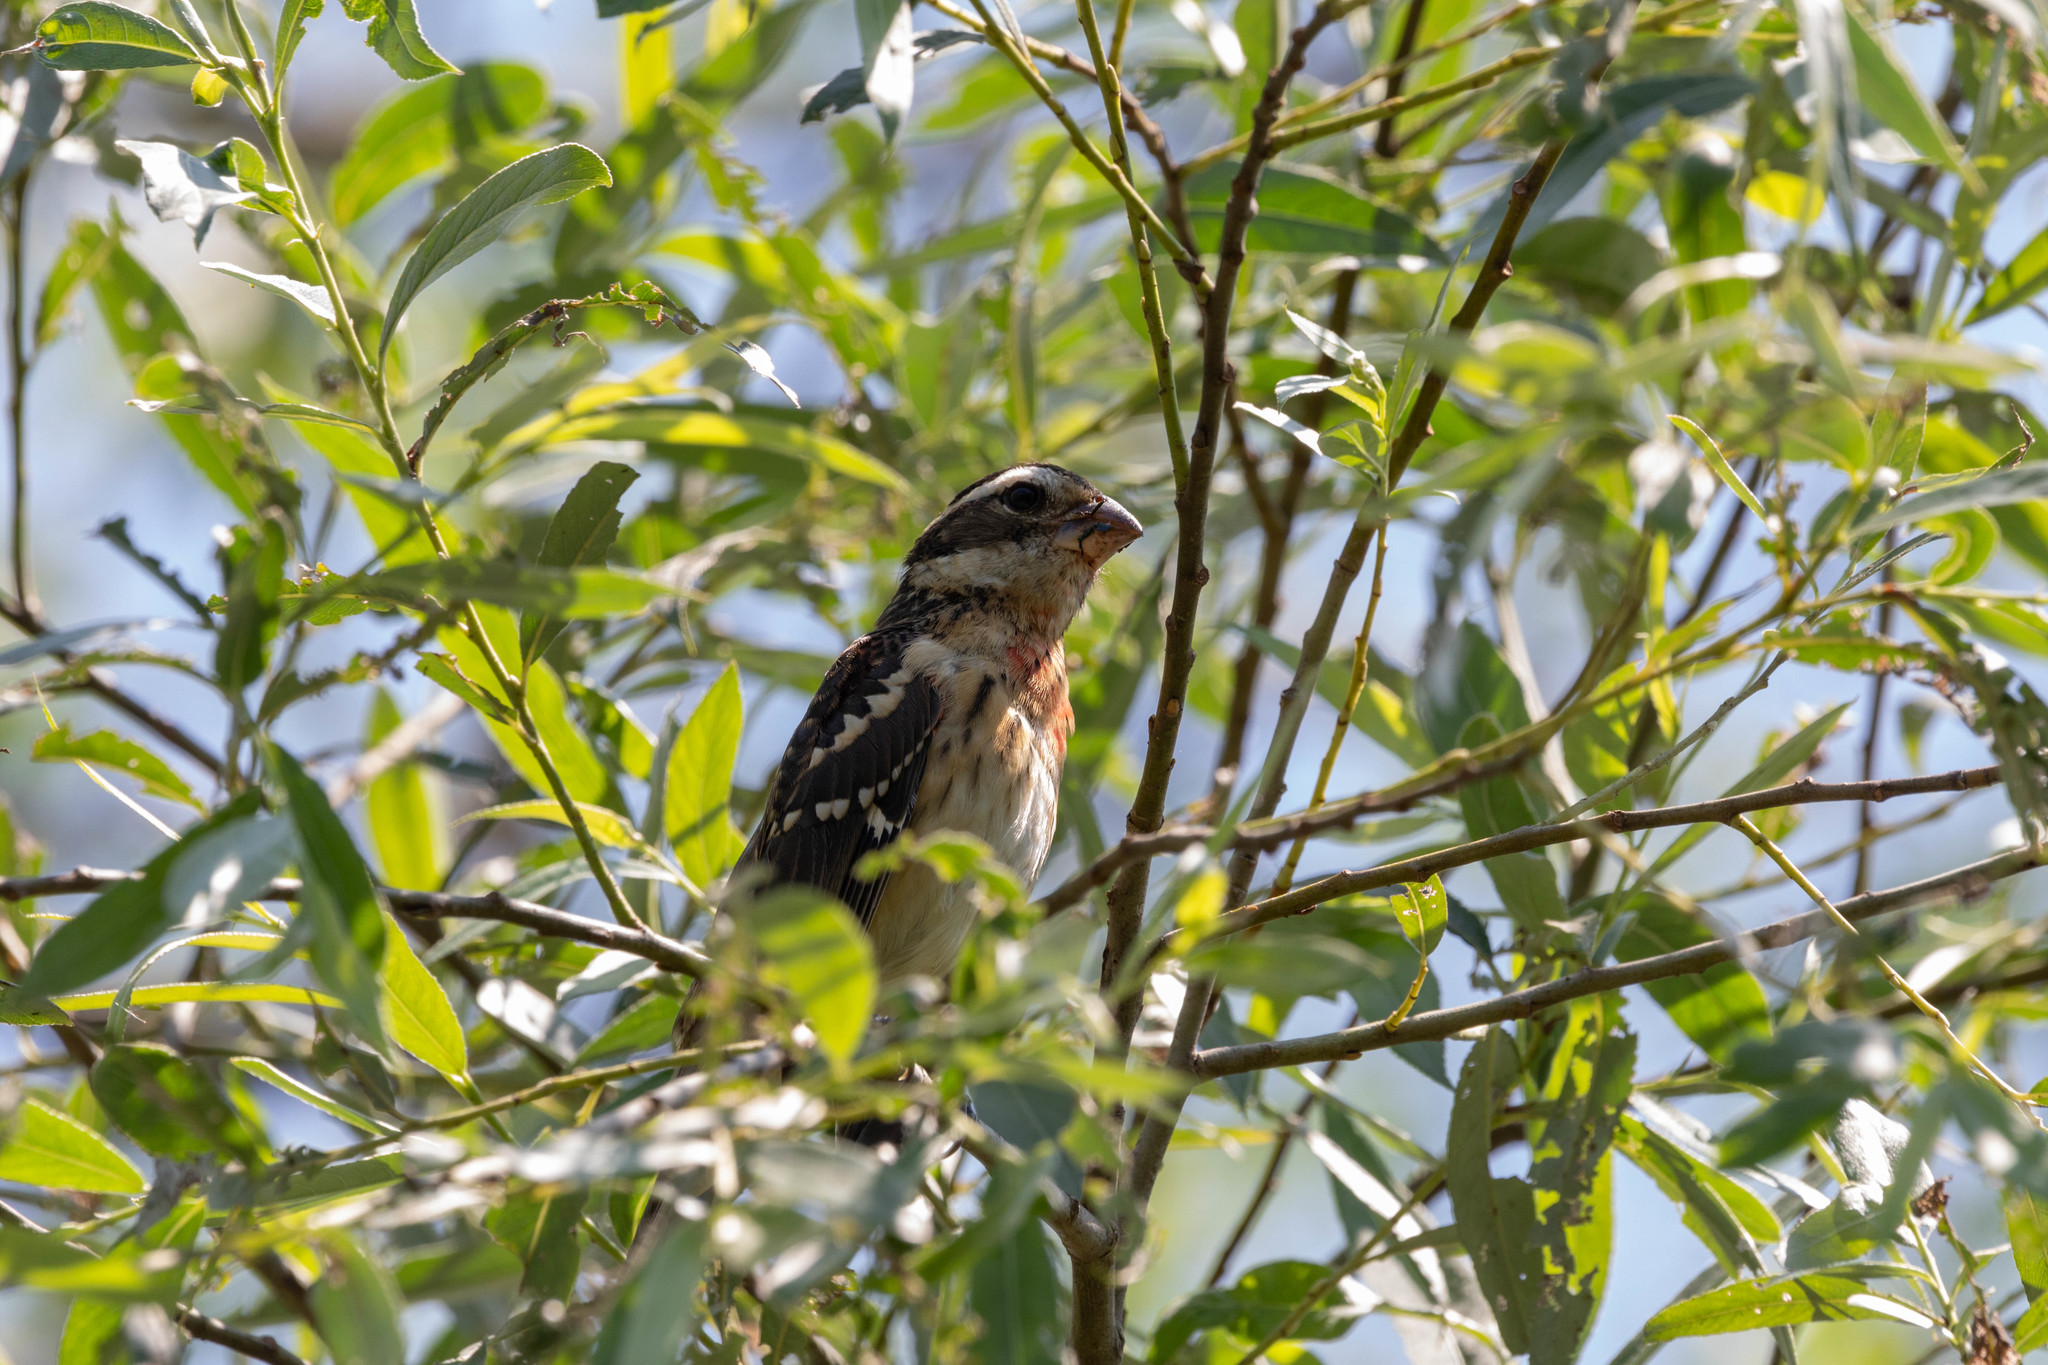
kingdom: Animalia
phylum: Chordata
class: Aves
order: Passeriformes
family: Cardinalidae
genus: Pheucticus
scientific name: Pheucticus ludovicianus
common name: Rose-breasted grosbeak
